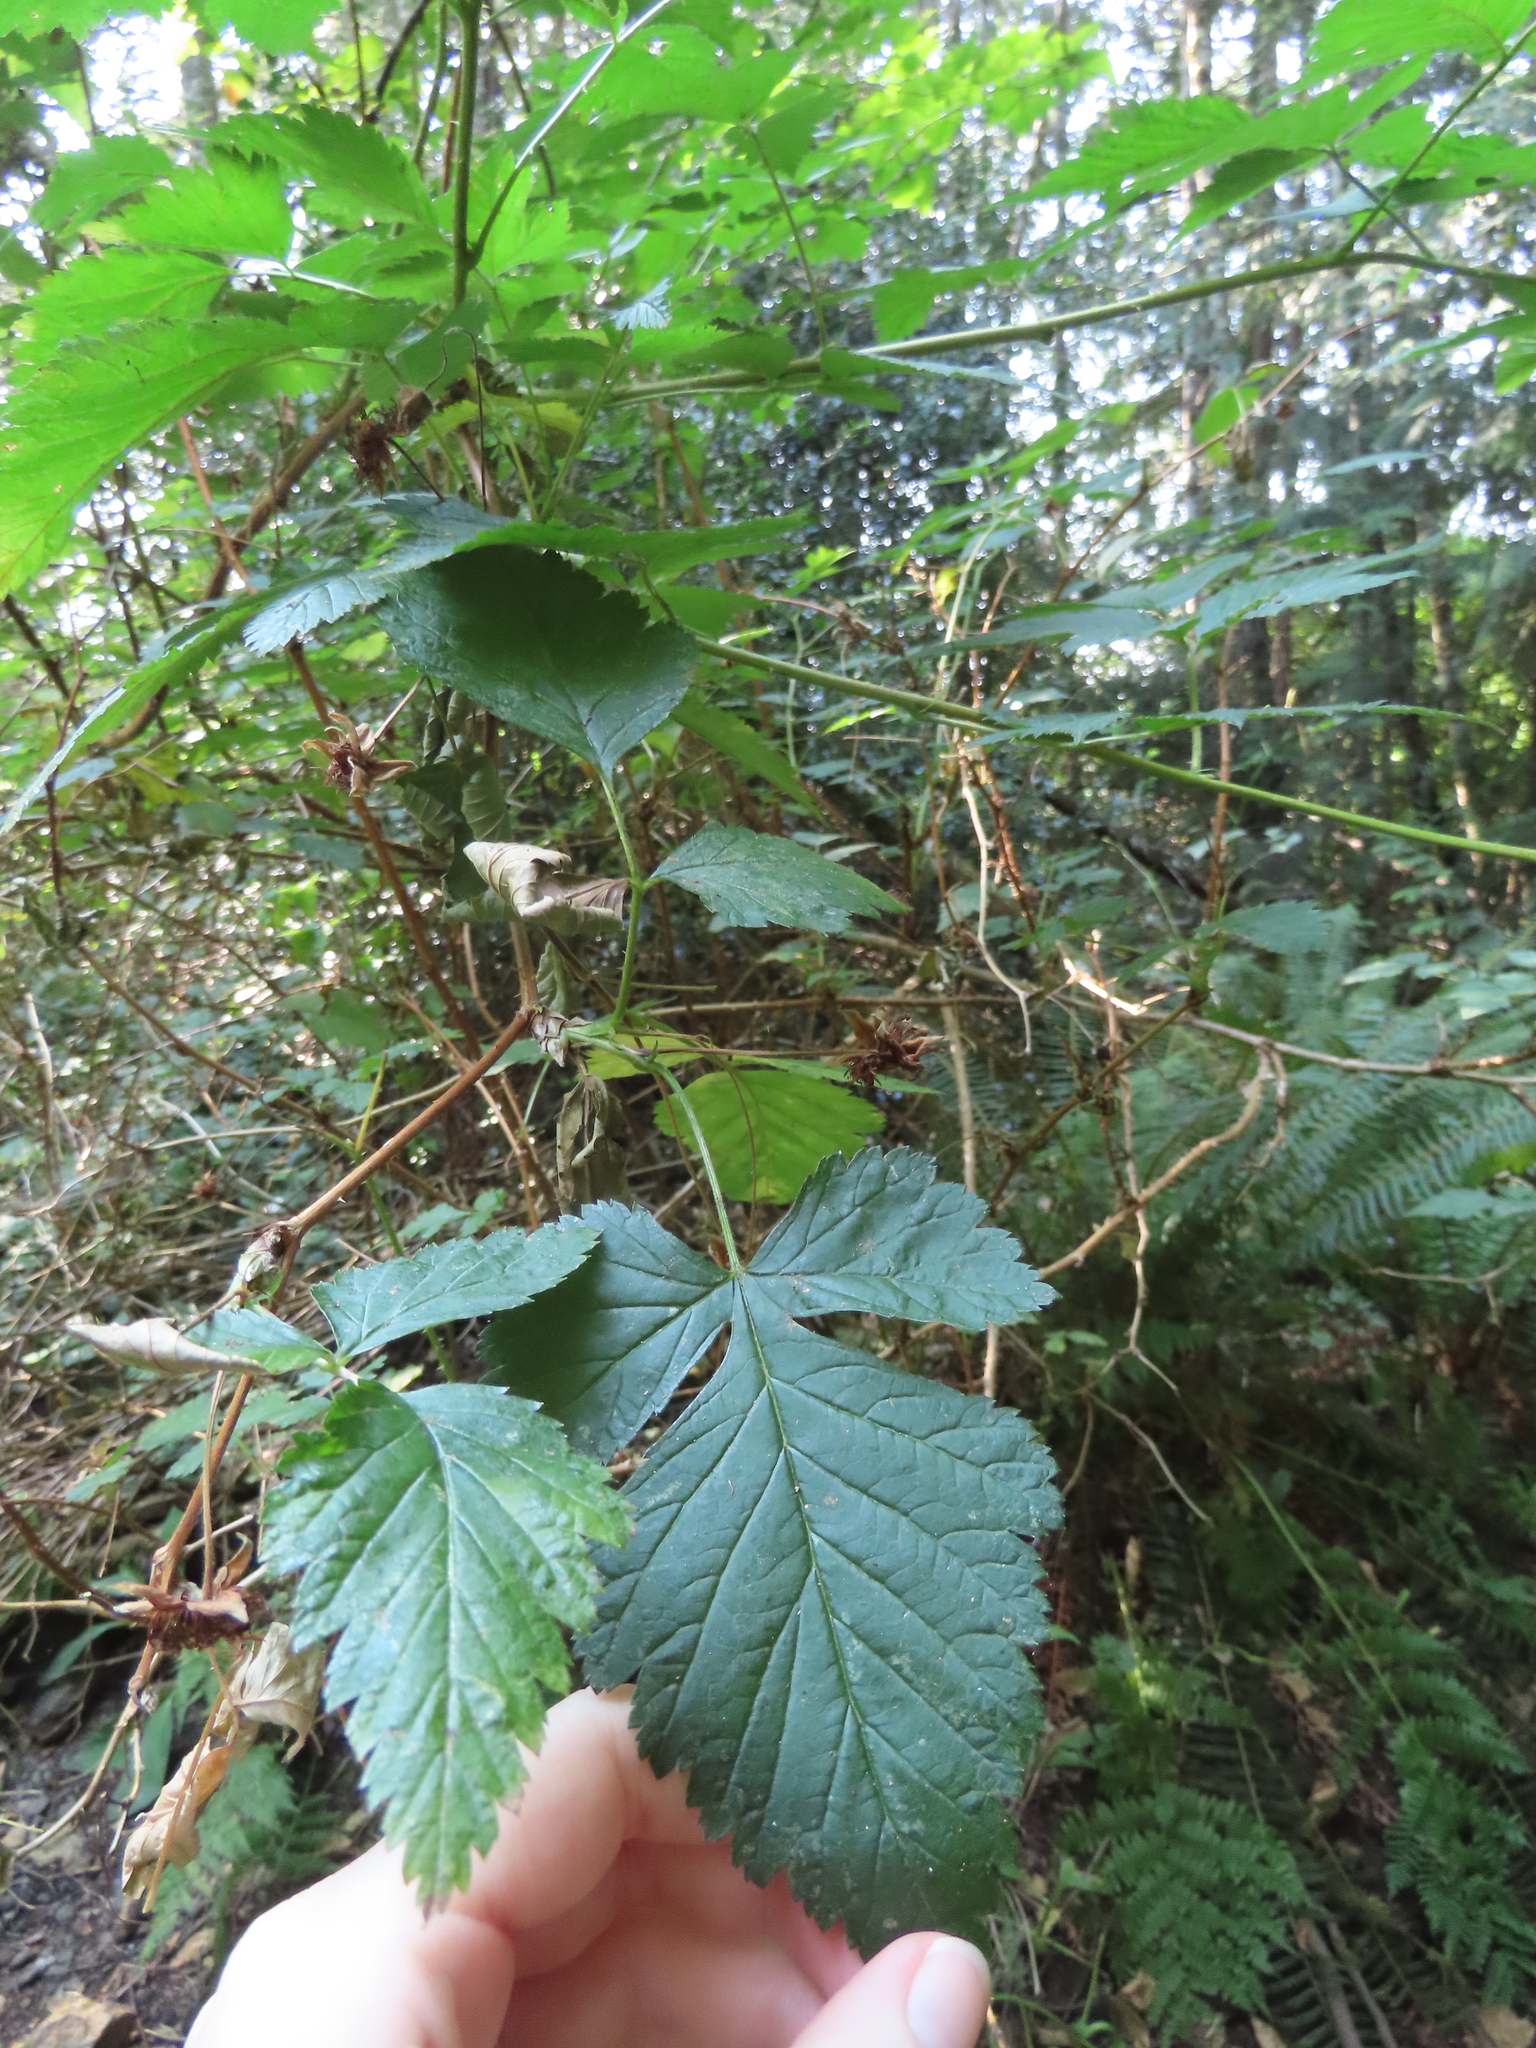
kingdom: Plantae
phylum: Tracheophyta
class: Magnoliopsida
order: Rosales
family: Rosaceae
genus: Rubus
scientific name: Rubus spectabilis
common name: Salmonberry
